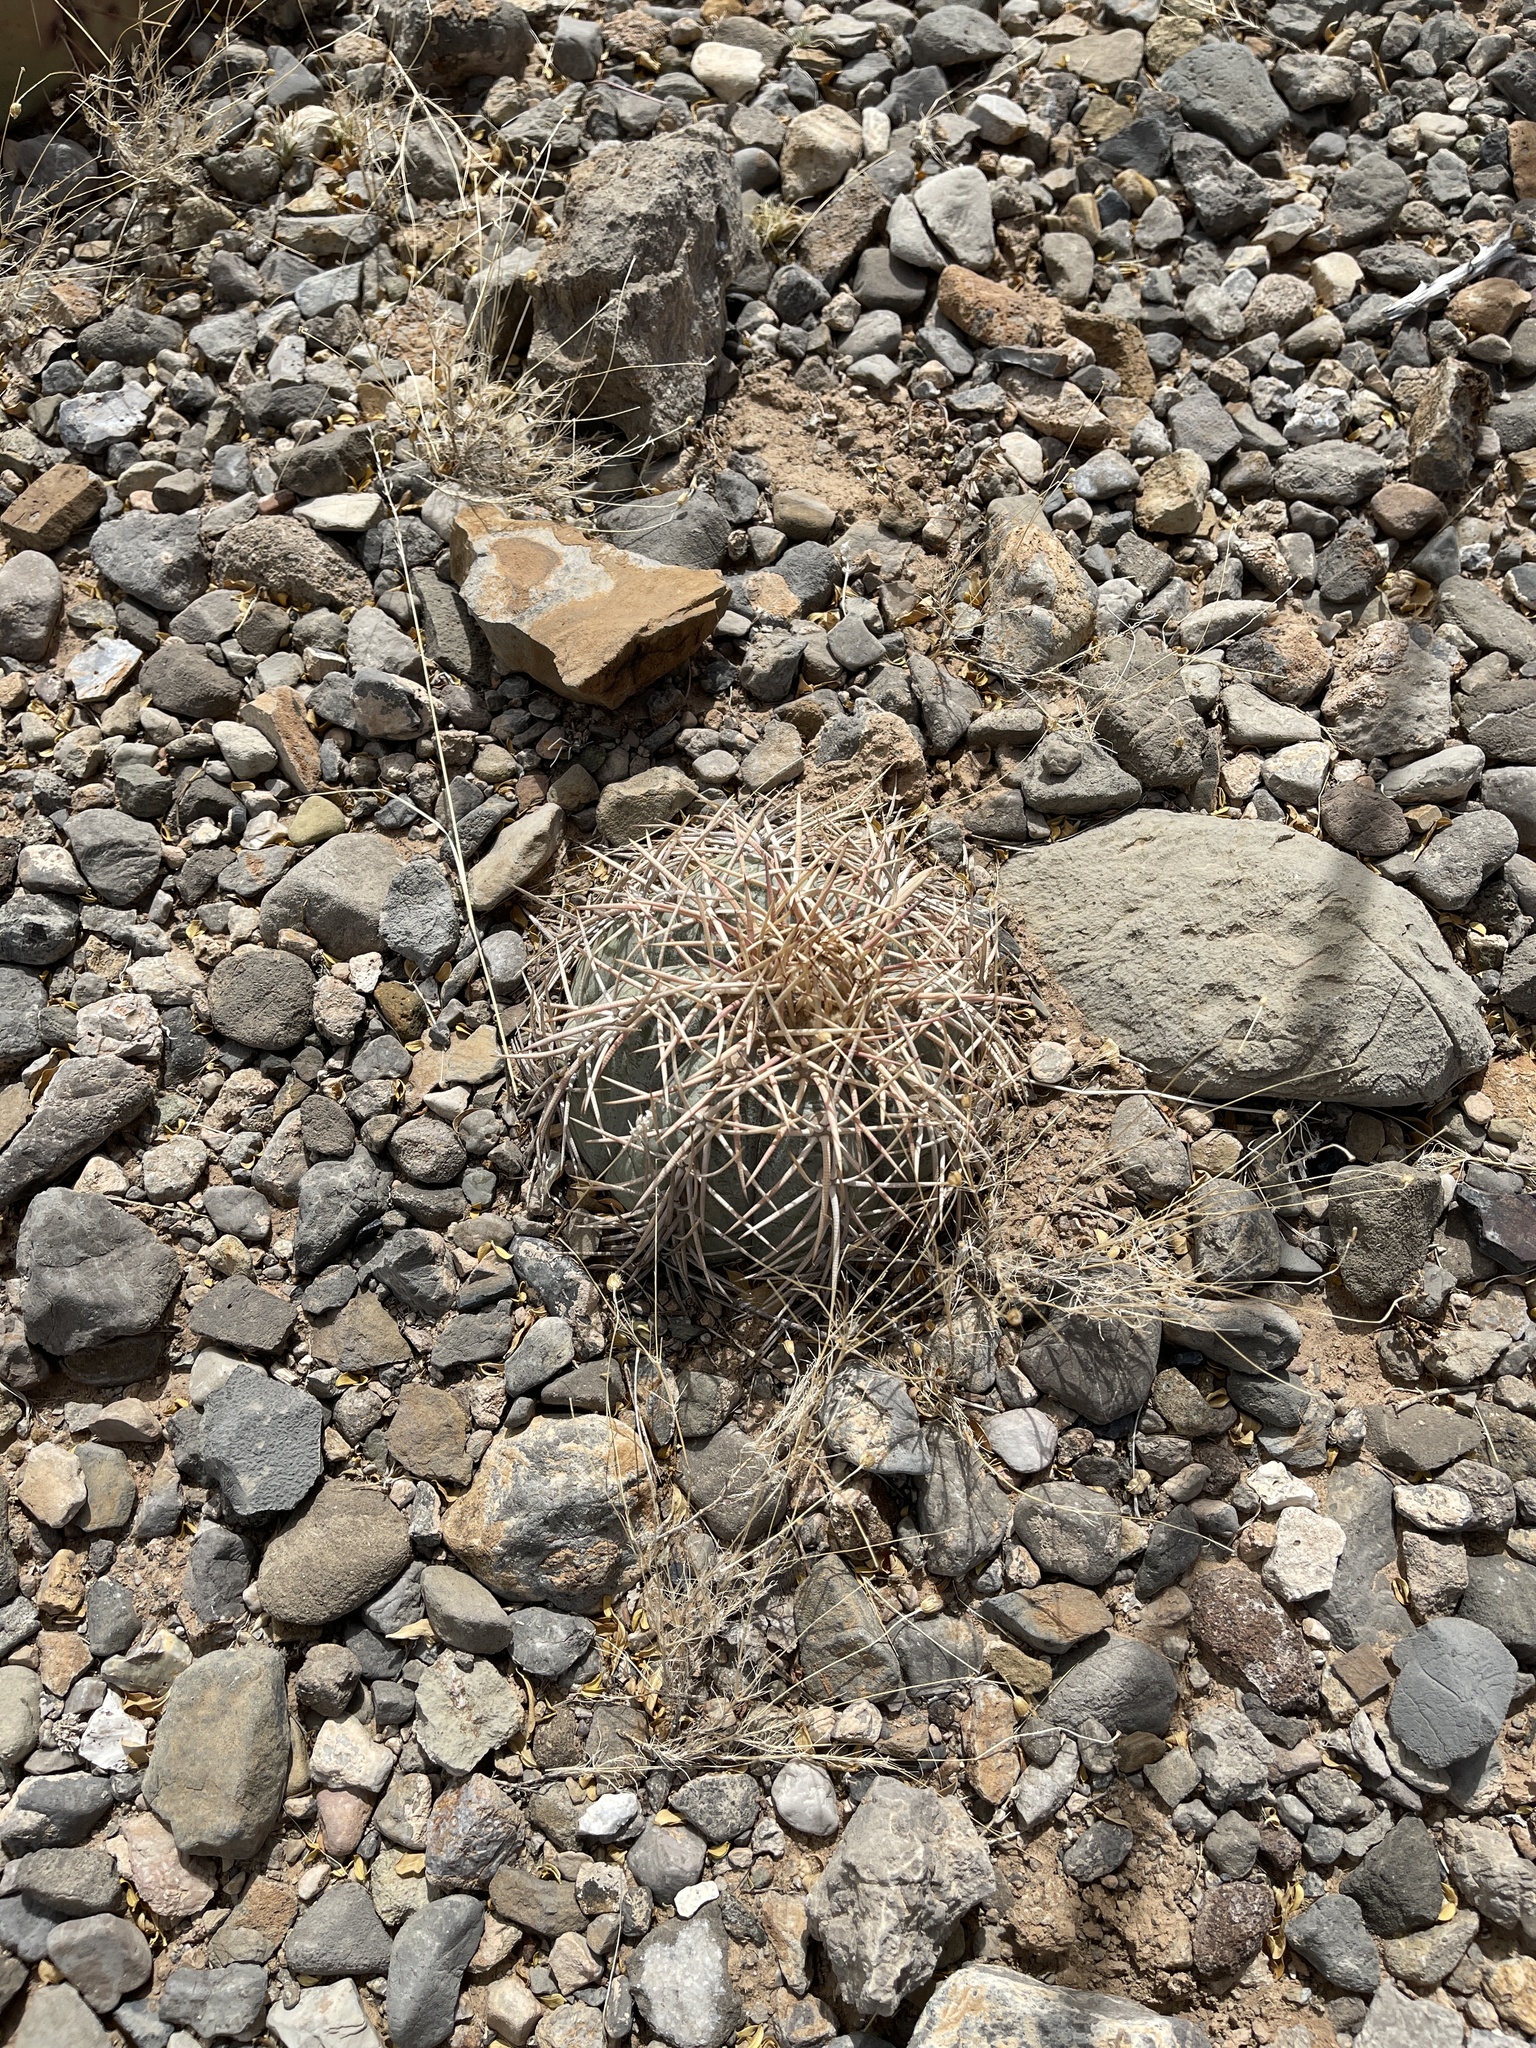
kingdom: Plantae
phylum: Tracheophyta
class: Magnoliopsida
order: Caryophyllales
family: Cactaceae
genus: Echinocactus
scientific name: Echinocactus horizonthalonius
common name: Devilshead
